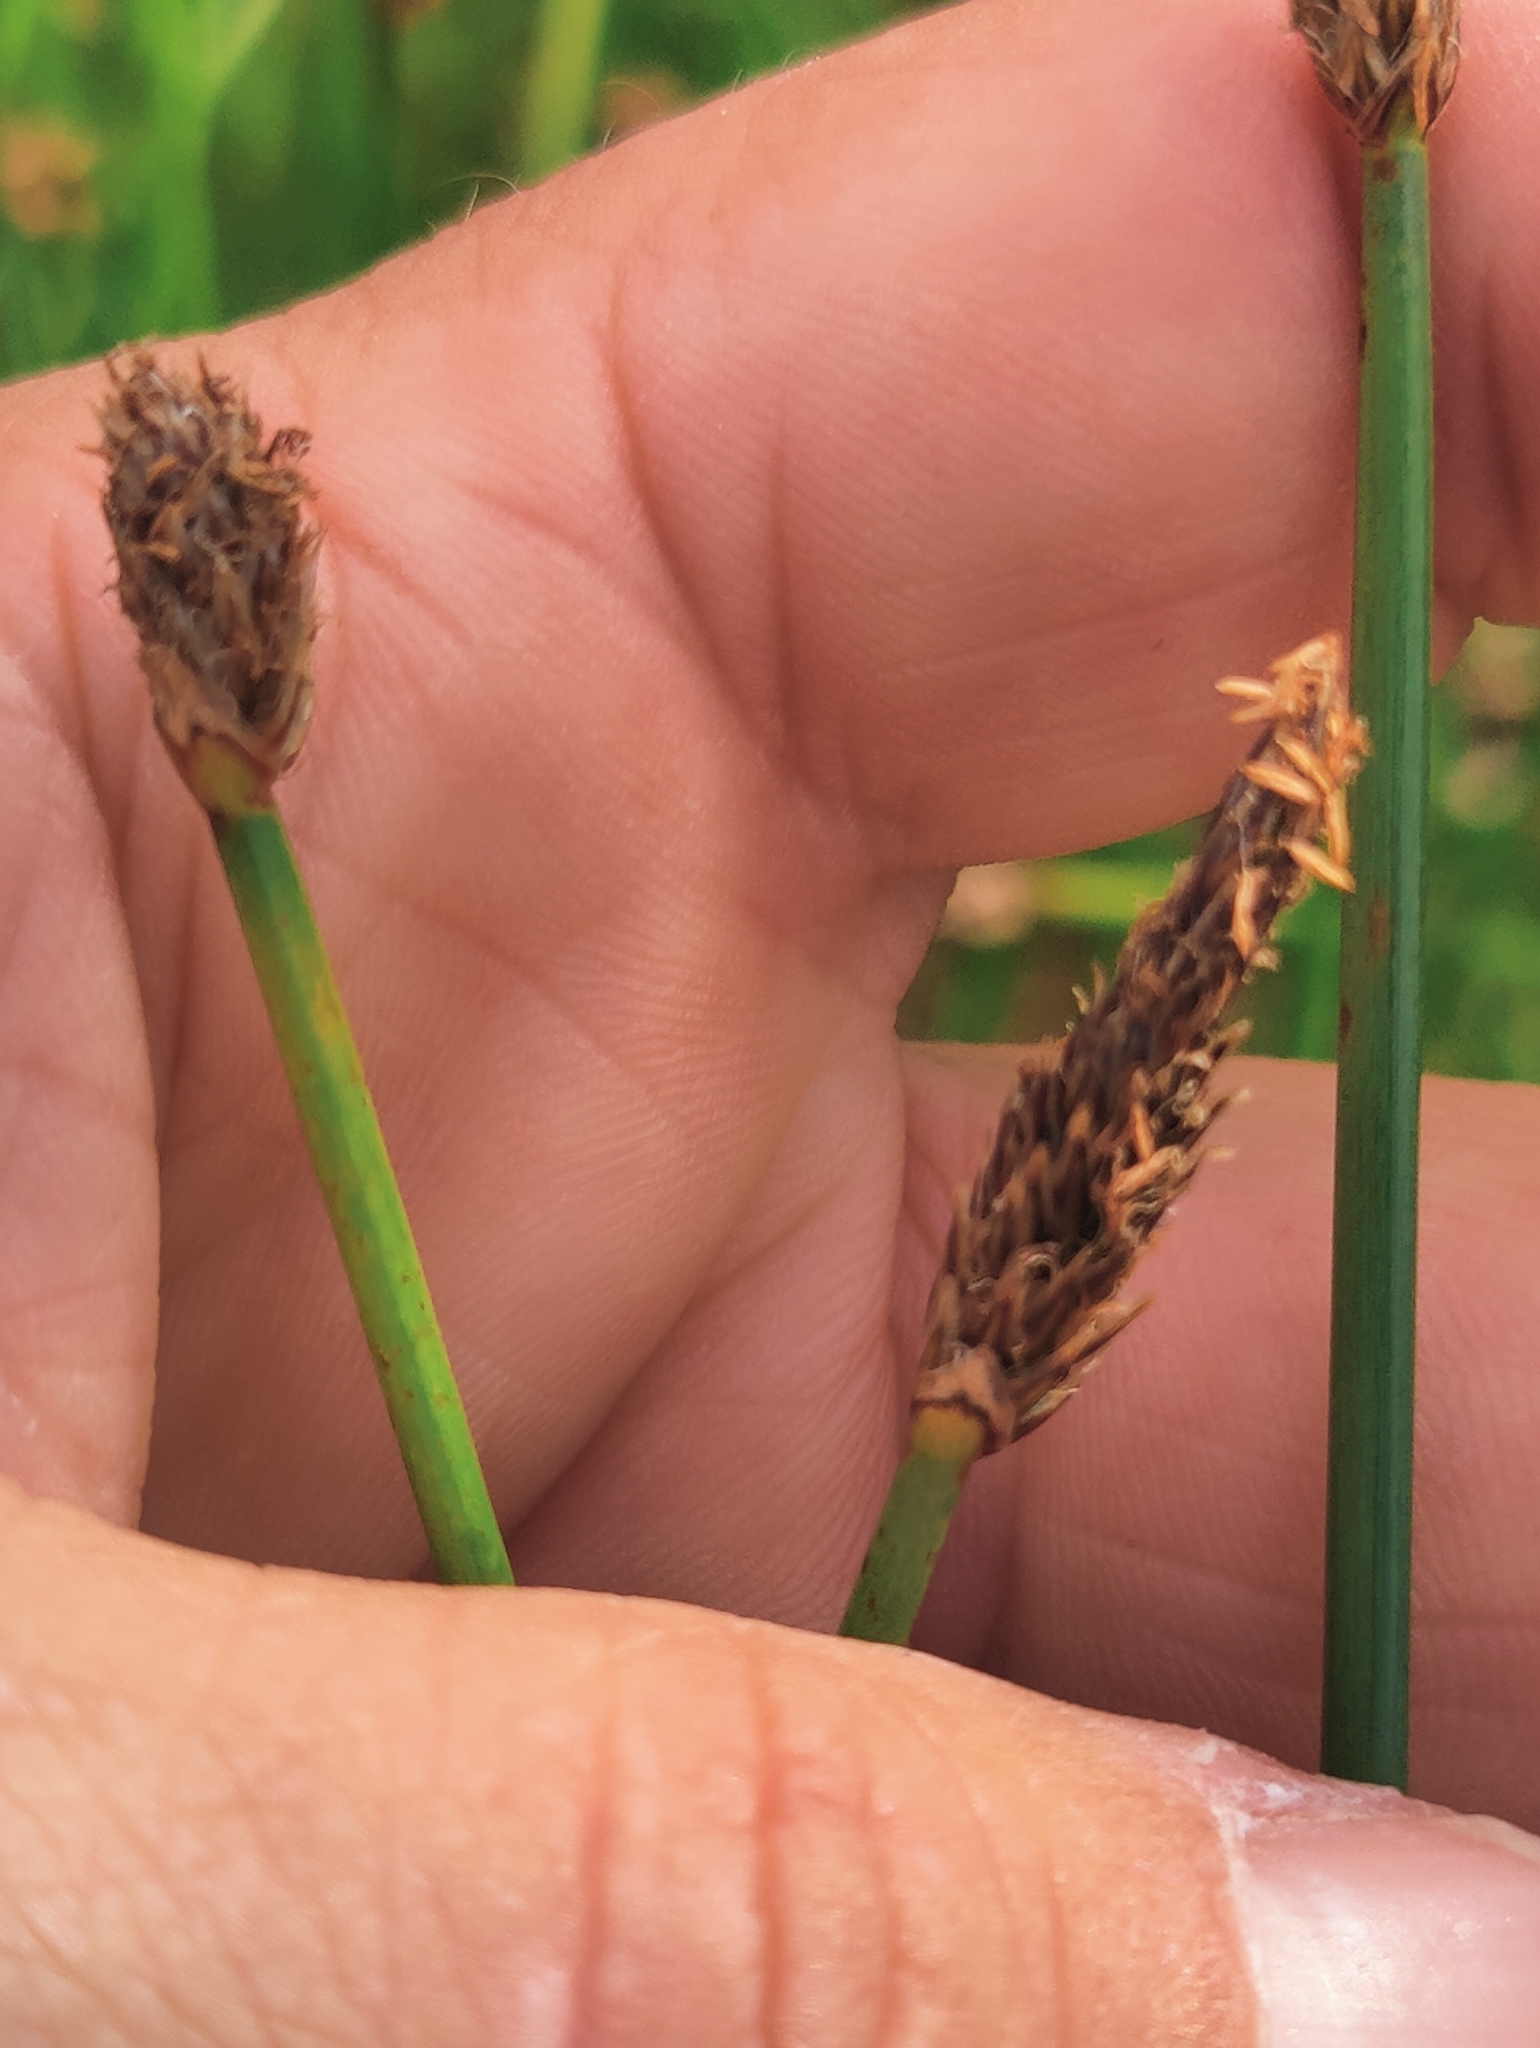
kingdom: Plantae
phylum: Tracheophyta
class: Liliopsida
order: Poales
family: Cyperaceae
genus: Eleocharis
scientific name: Eleocharis palustris
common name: Common spike-rush
